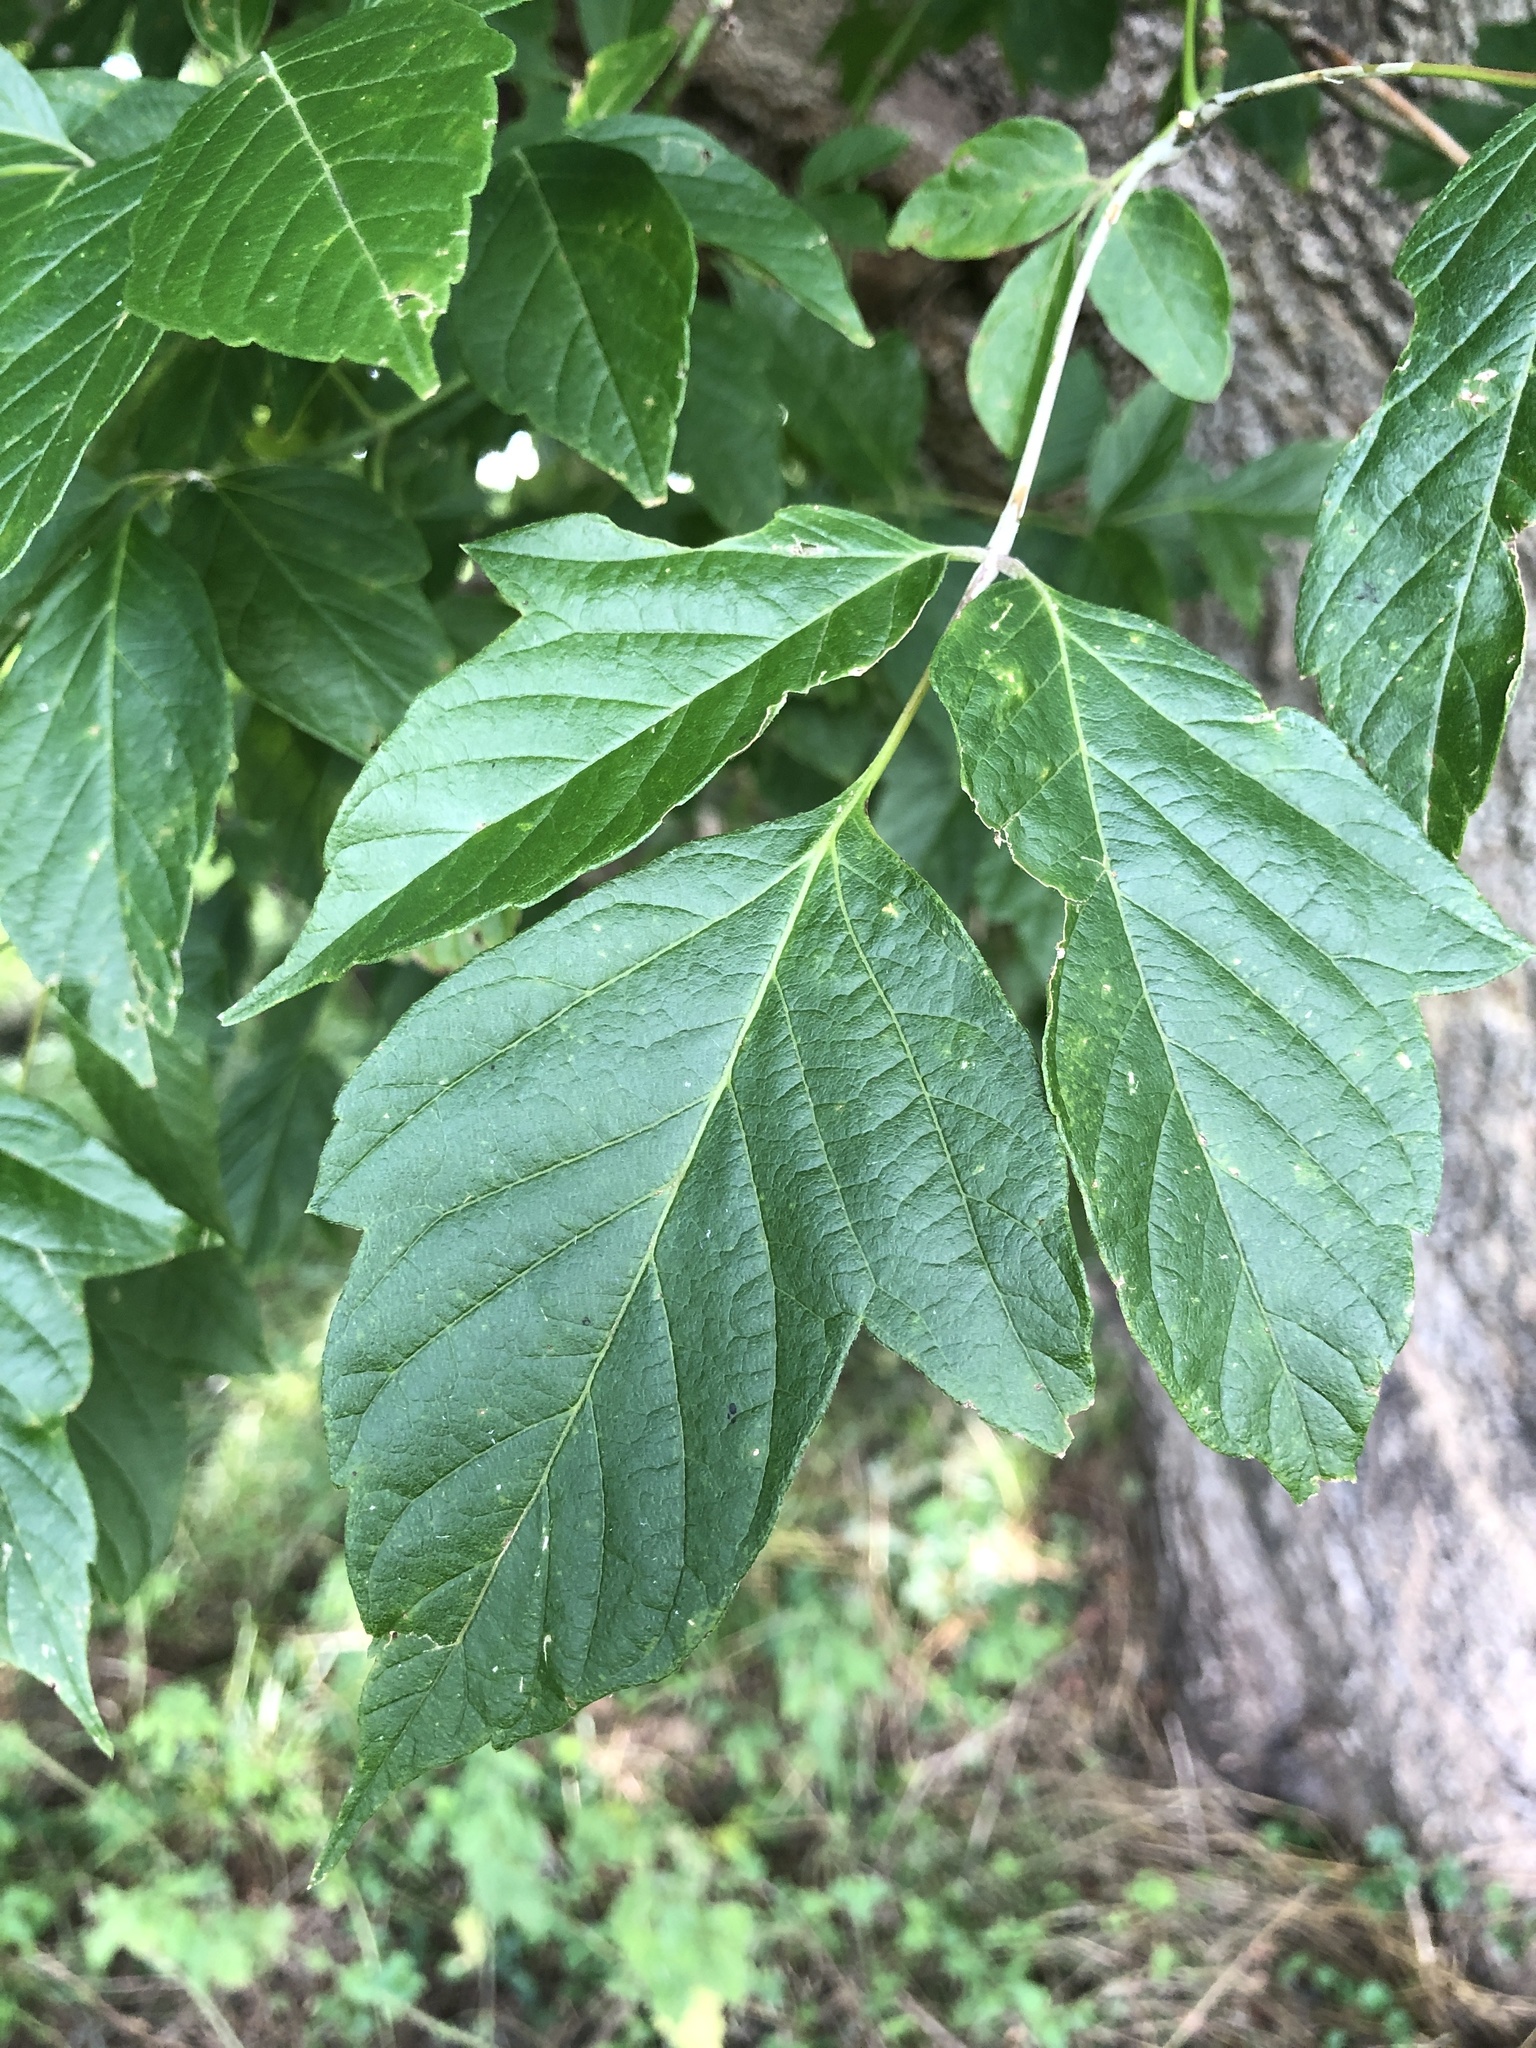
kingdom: Plantae
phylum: Tracheophyta
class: Magnoliopsida
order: Sapindales
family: Sapindaceae
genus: Acer
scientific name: Acer negundo
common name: Ashleaf maple
